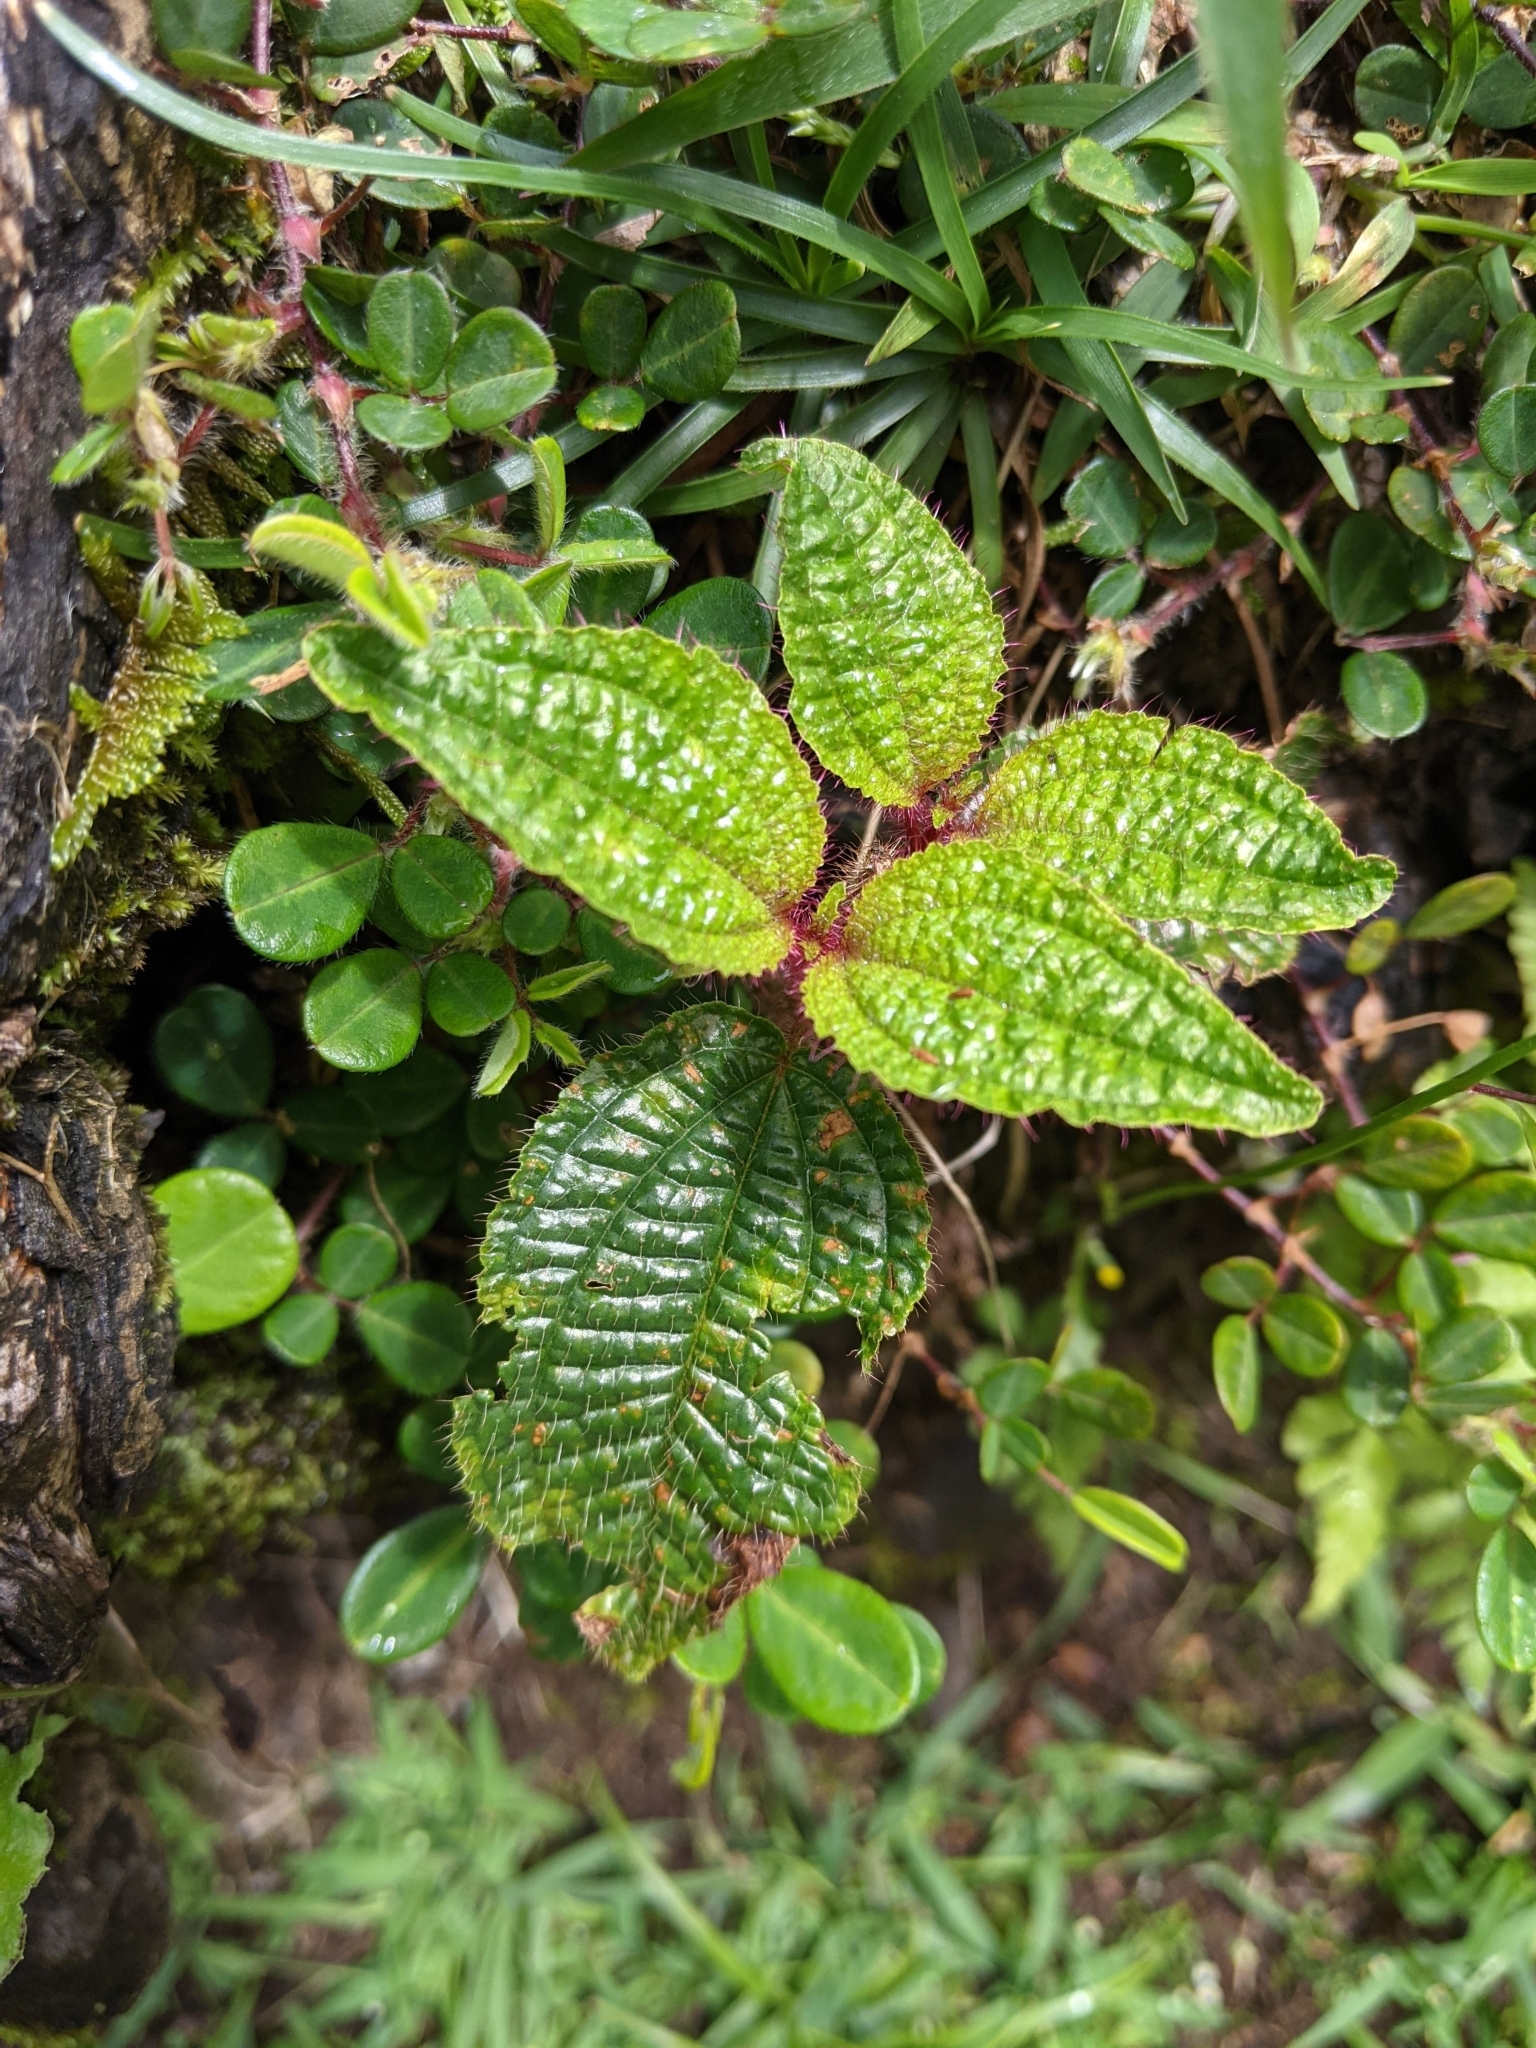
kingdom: Plantae
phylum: Tracheophyta
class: Magnoliopsida
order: Myrtales
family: Melastomataceae
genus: Miconia
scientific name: Miconia crenata
